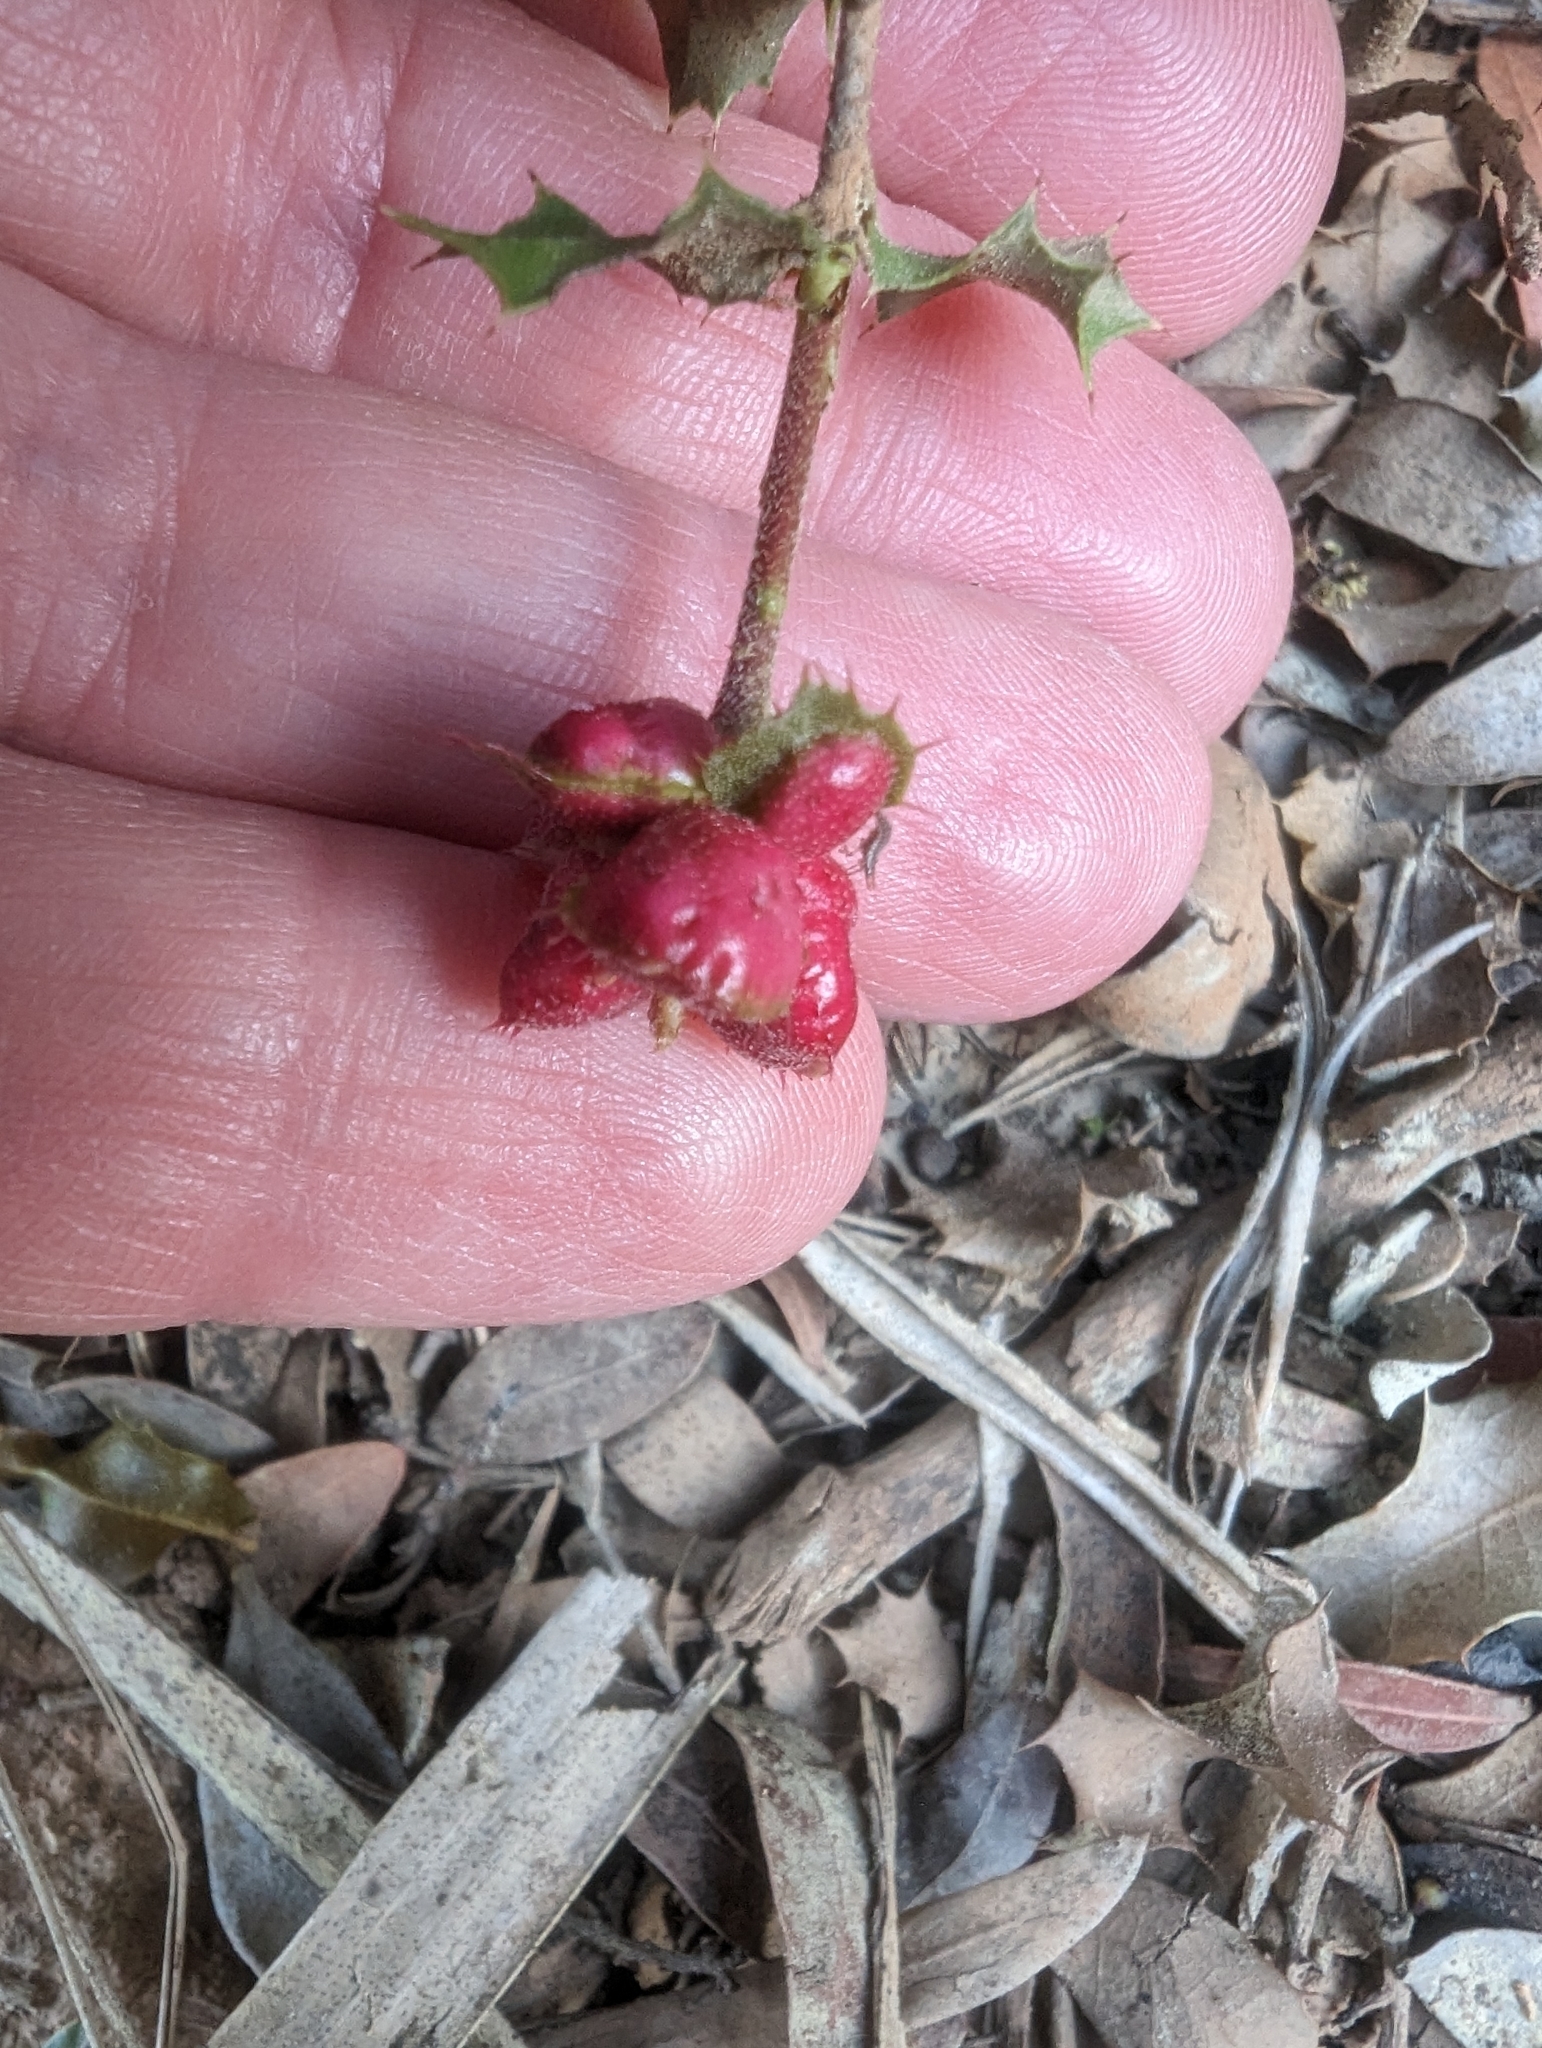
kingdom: Animalia
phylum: Arthropoda
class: Insecta
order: Hymenoptera
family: Cynipidae
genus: Plagiotrochus
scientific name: Plagiotrochus quercusilicis
